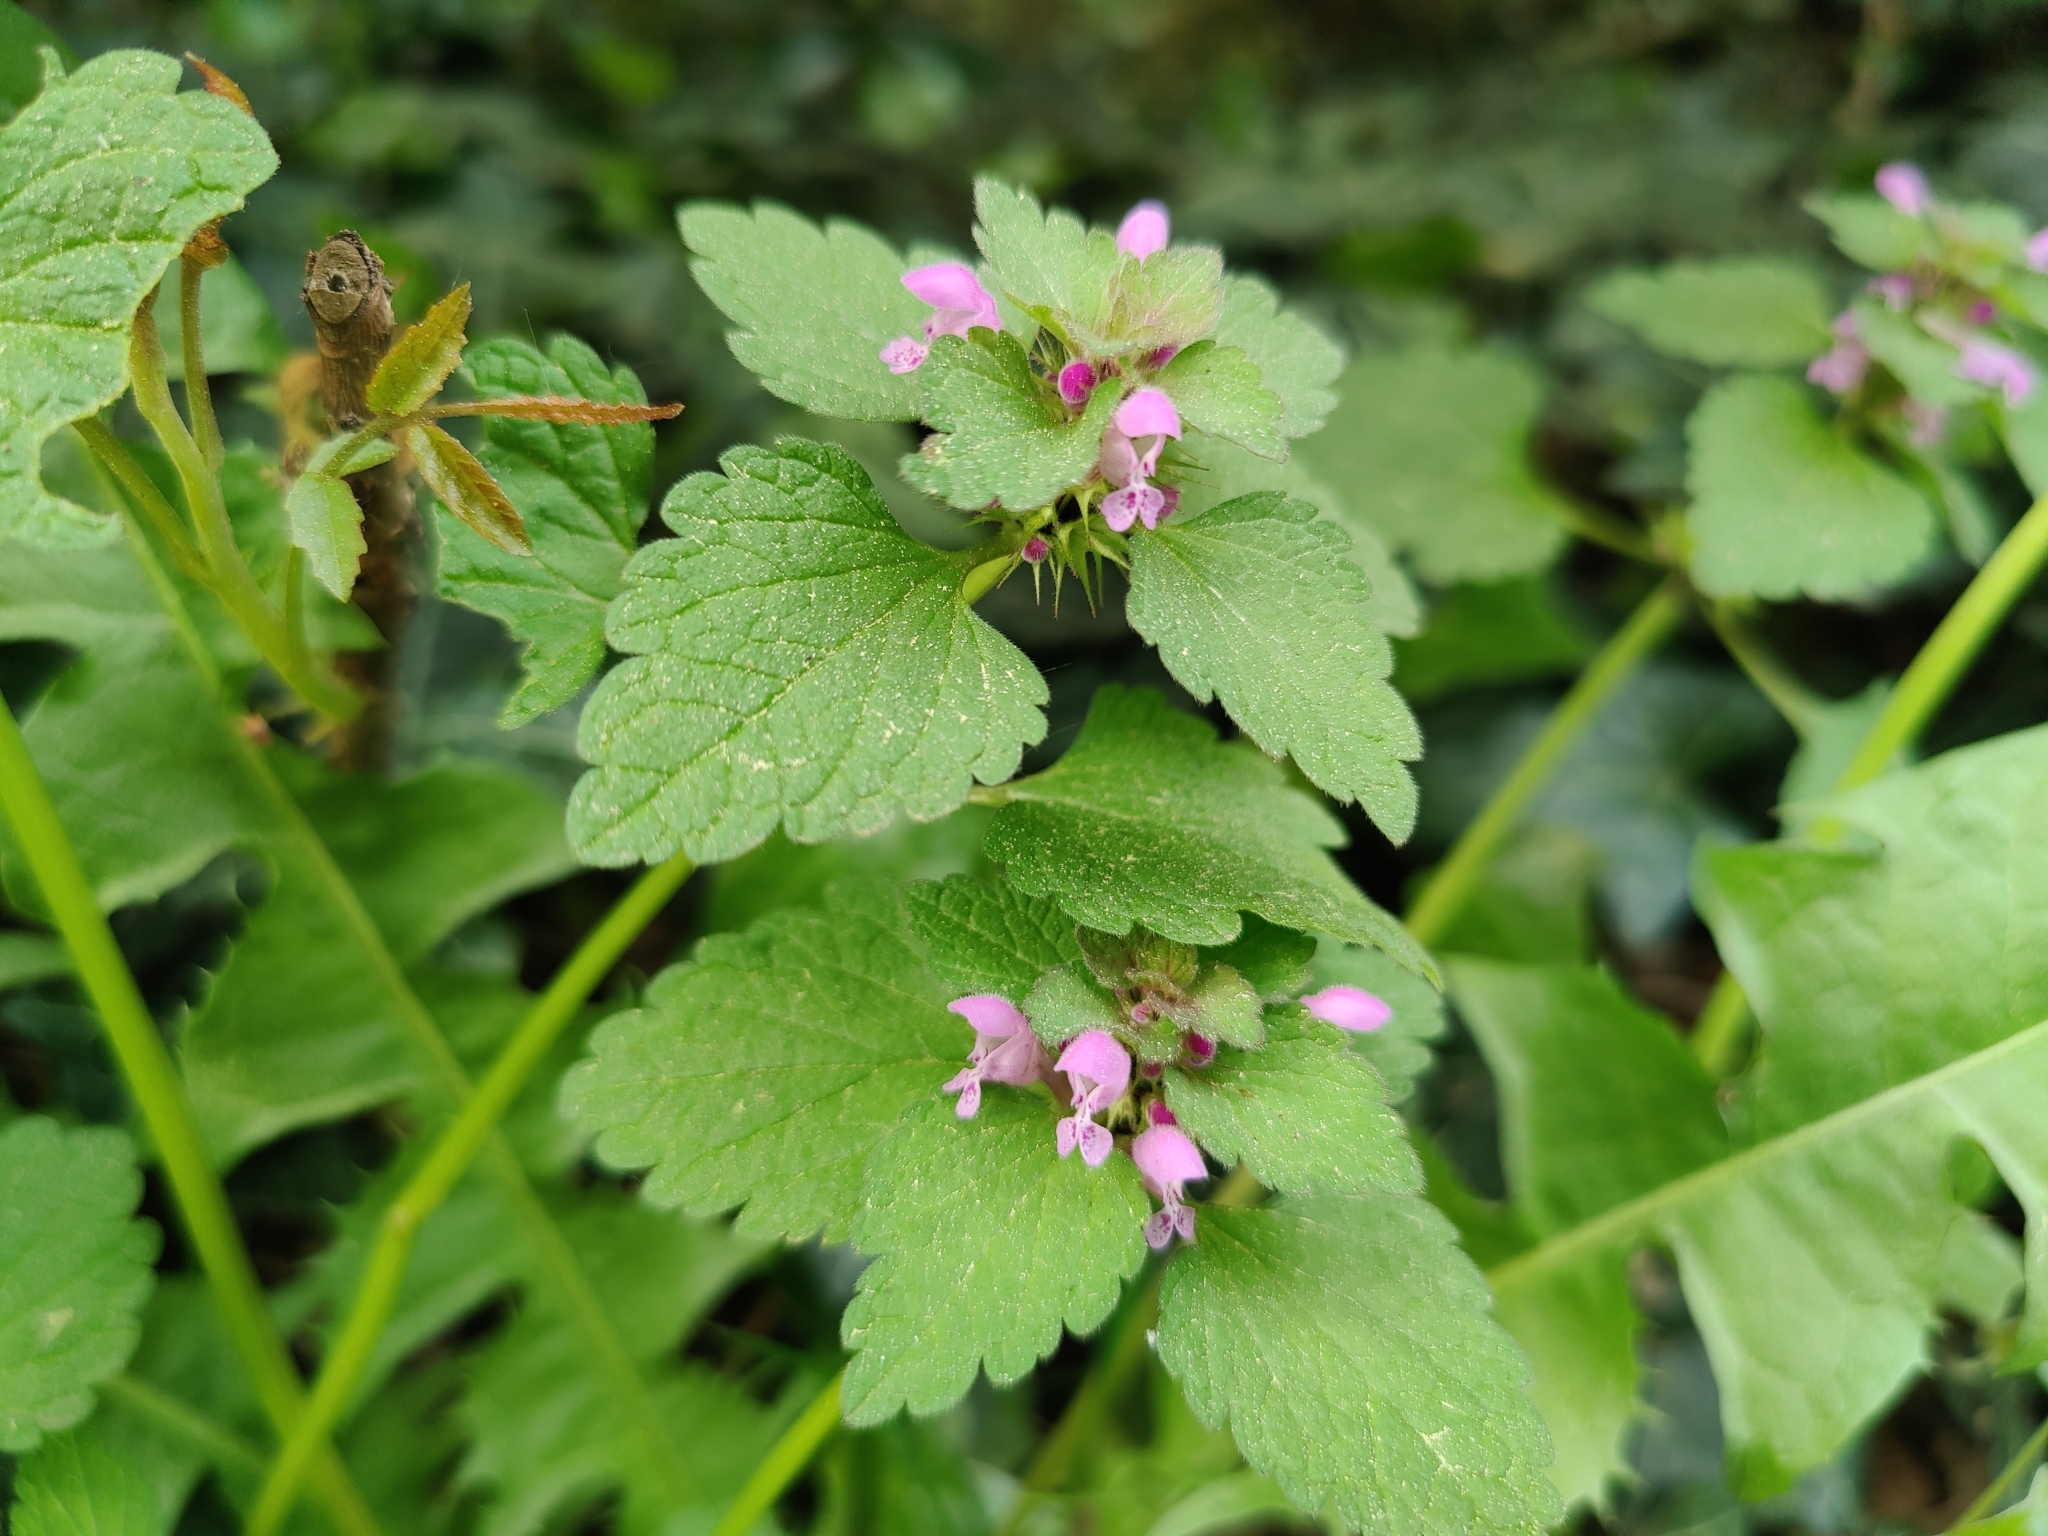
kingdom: Plantae
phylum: Tracheophyta
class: Magnoliopsida
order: Lamiales
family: Lamiaceae
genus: Lamium
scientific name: Lamium purpureum
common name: Red dead-nettle
